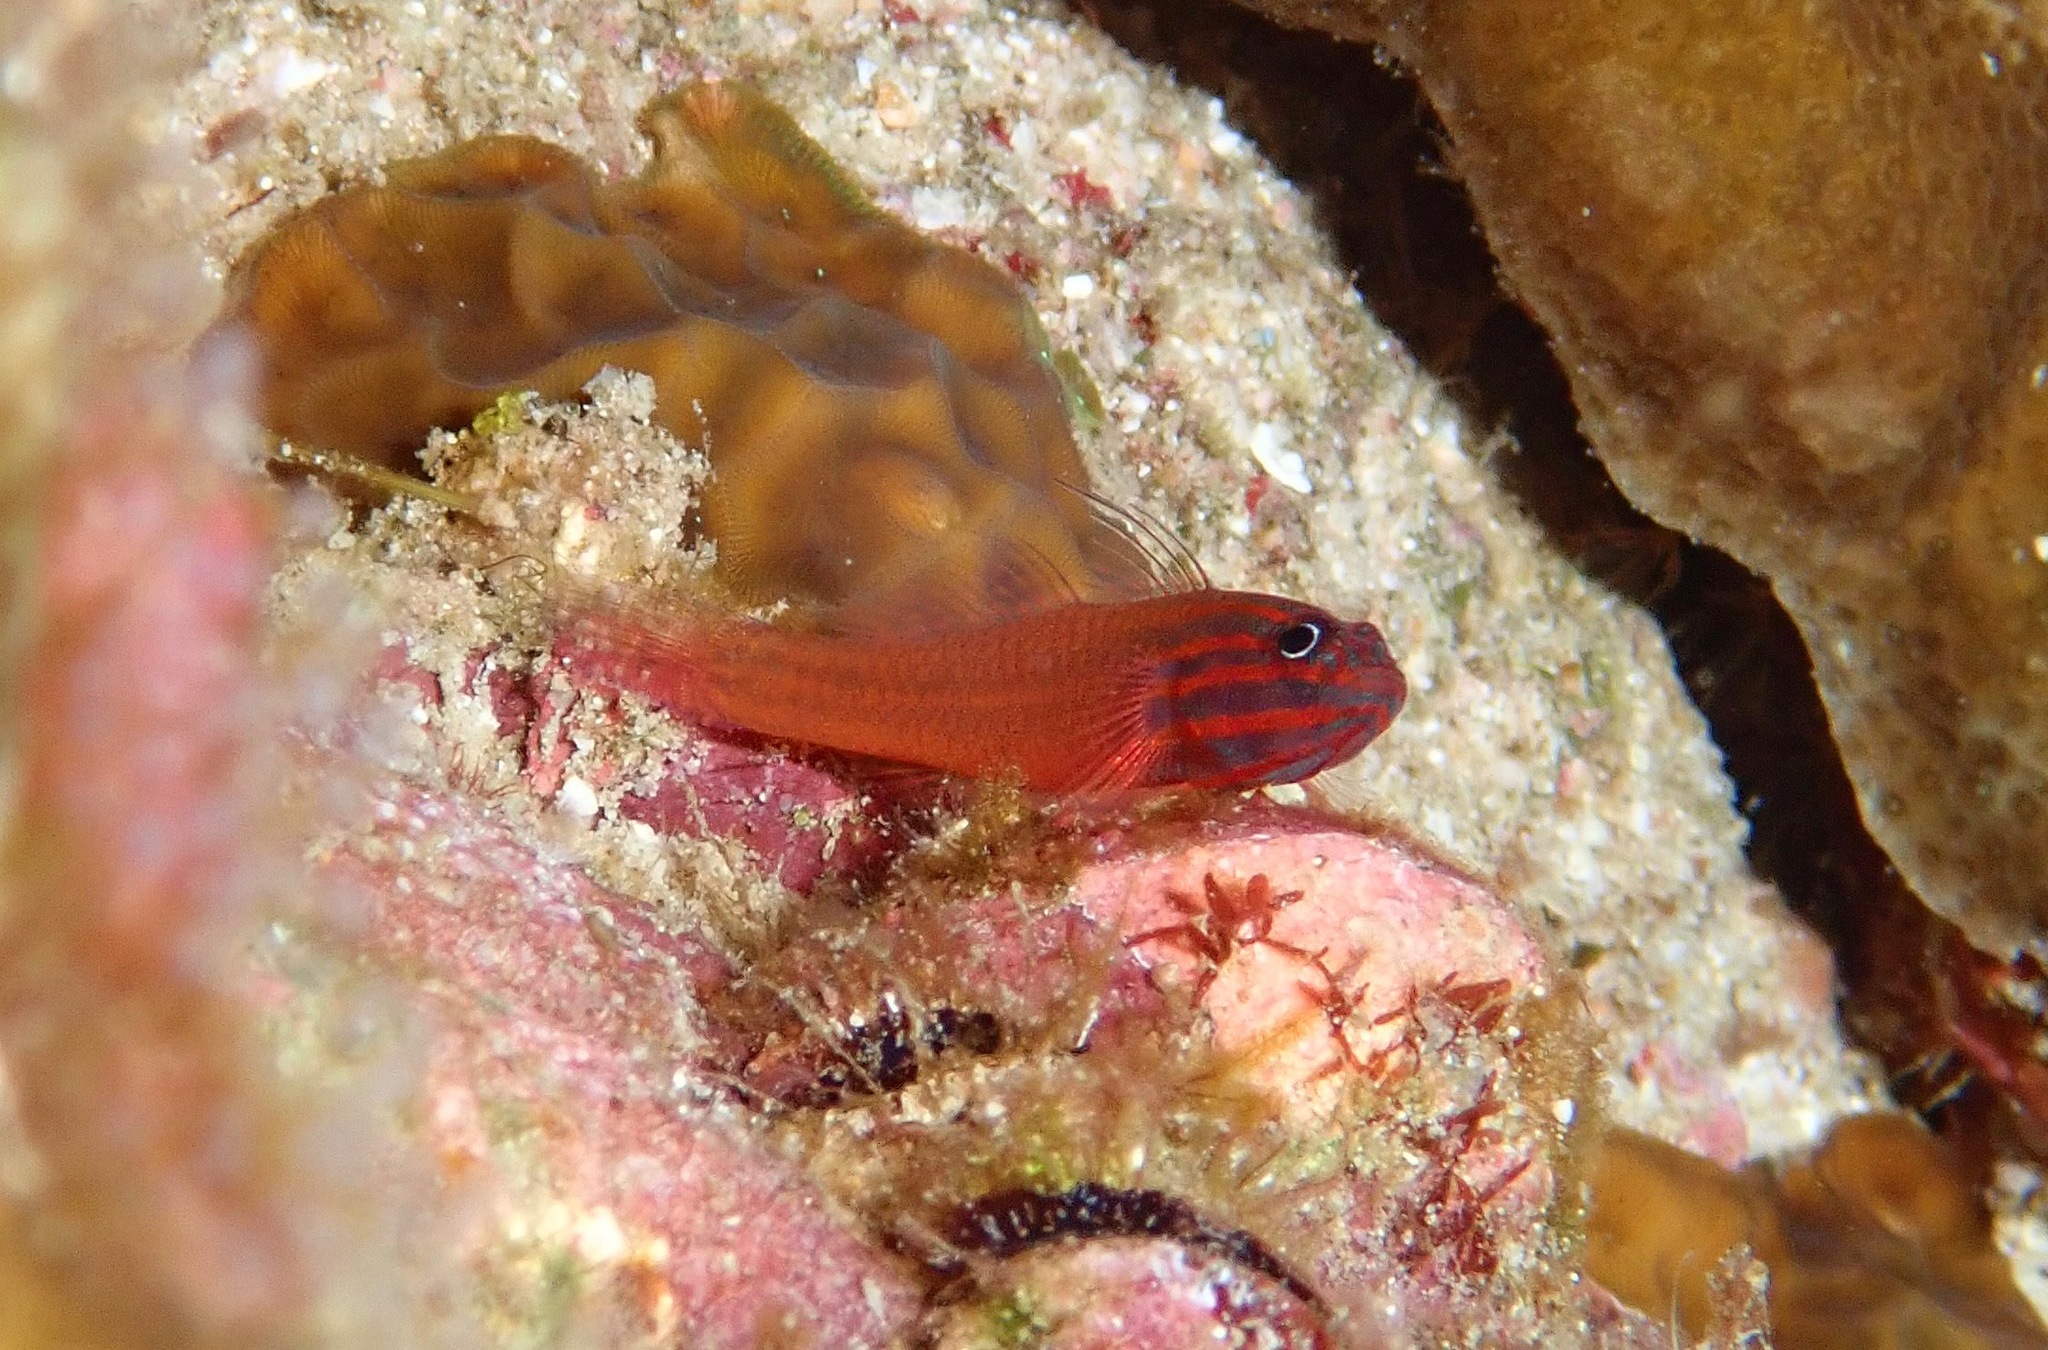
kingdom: Animalia
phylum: Chordata
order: Perciformes
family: Gobiidae
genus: Trimma
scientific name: Trimma striatum
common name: Red-lined pygmy-goby
